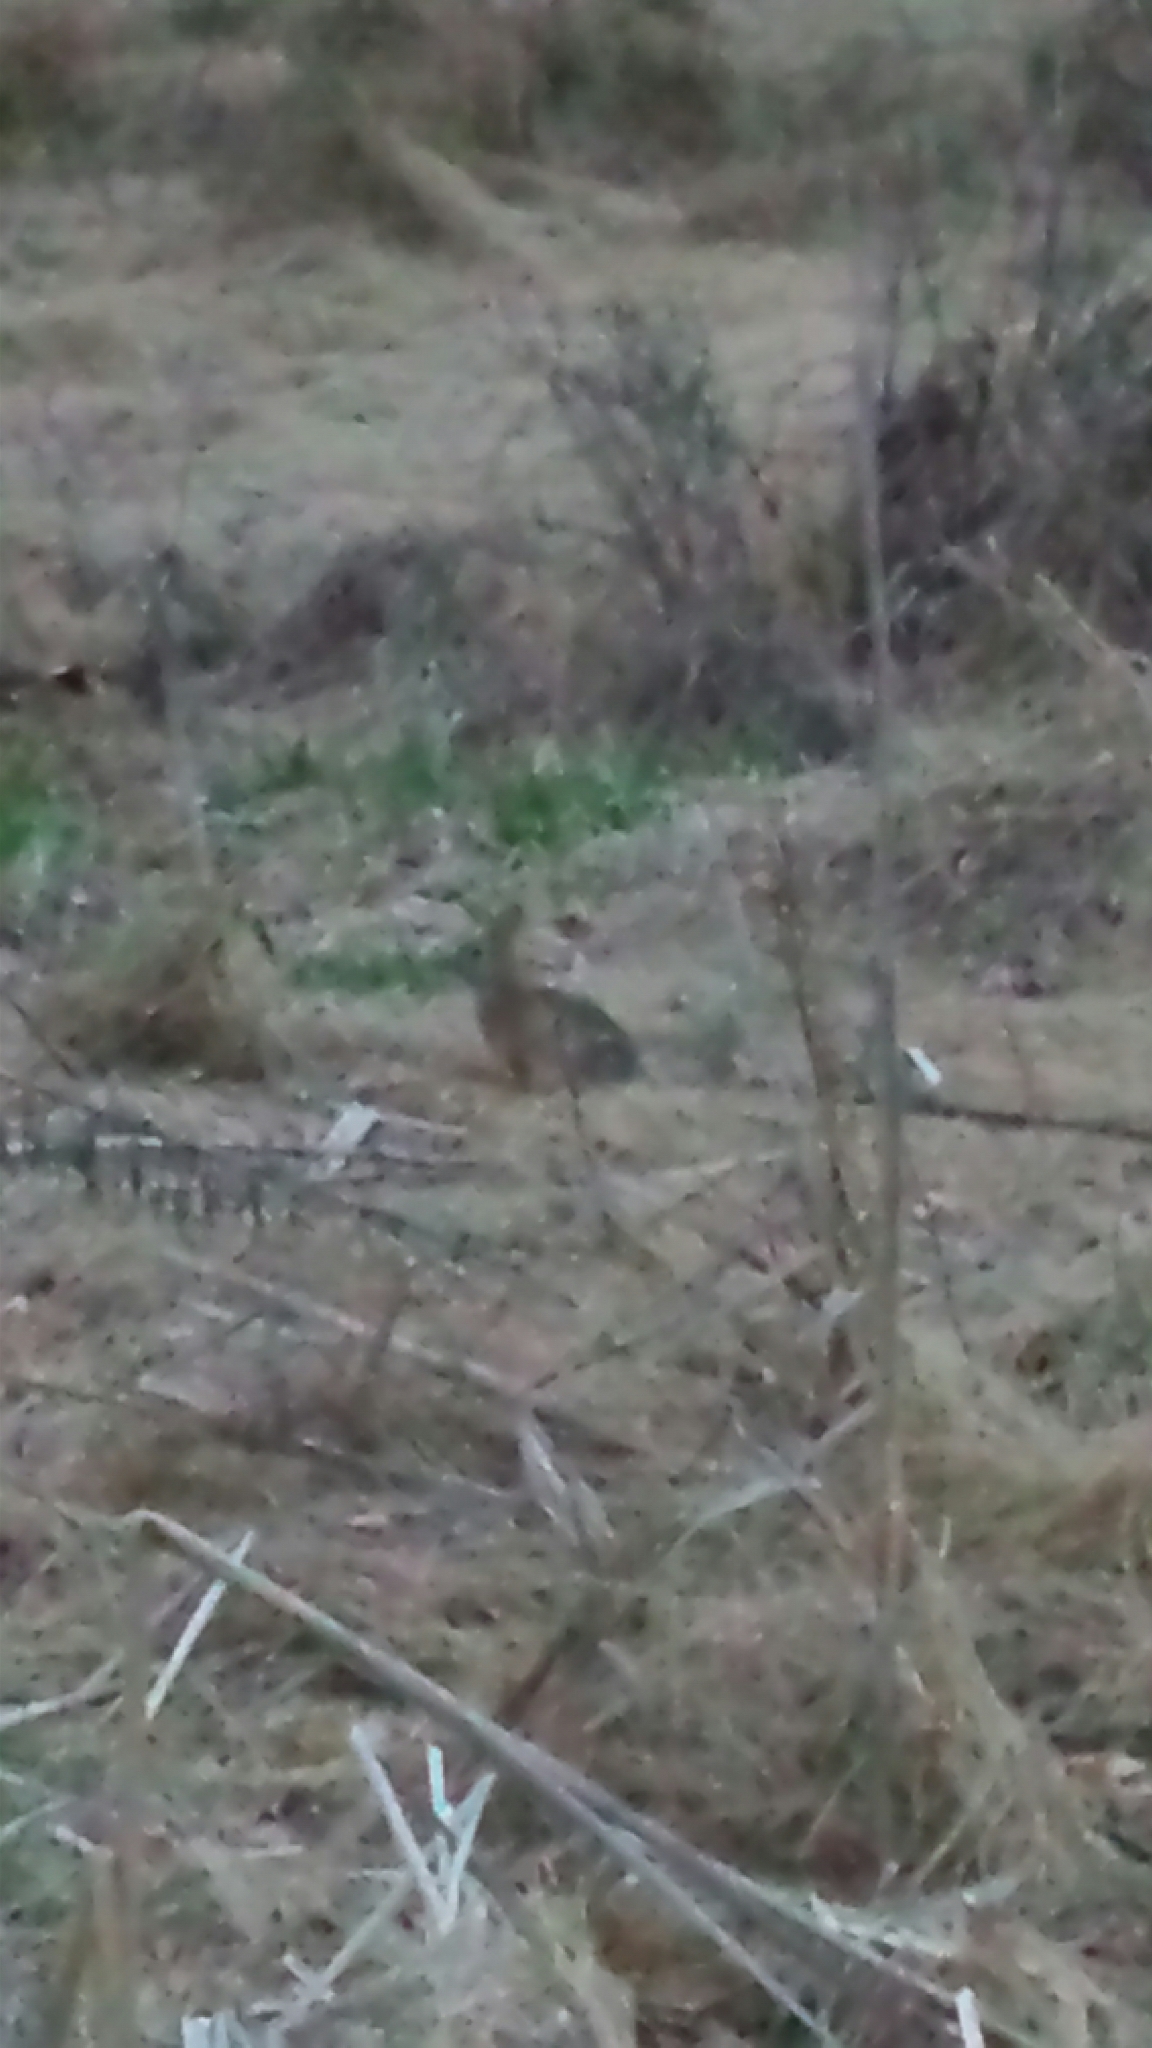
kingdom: Animalia
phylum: Chordata
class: Mammalia
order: Lagomorpha
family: Leporidae
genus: Sylvilagus
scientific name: Sylvilagus floridanus
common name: Eastern cottontail
